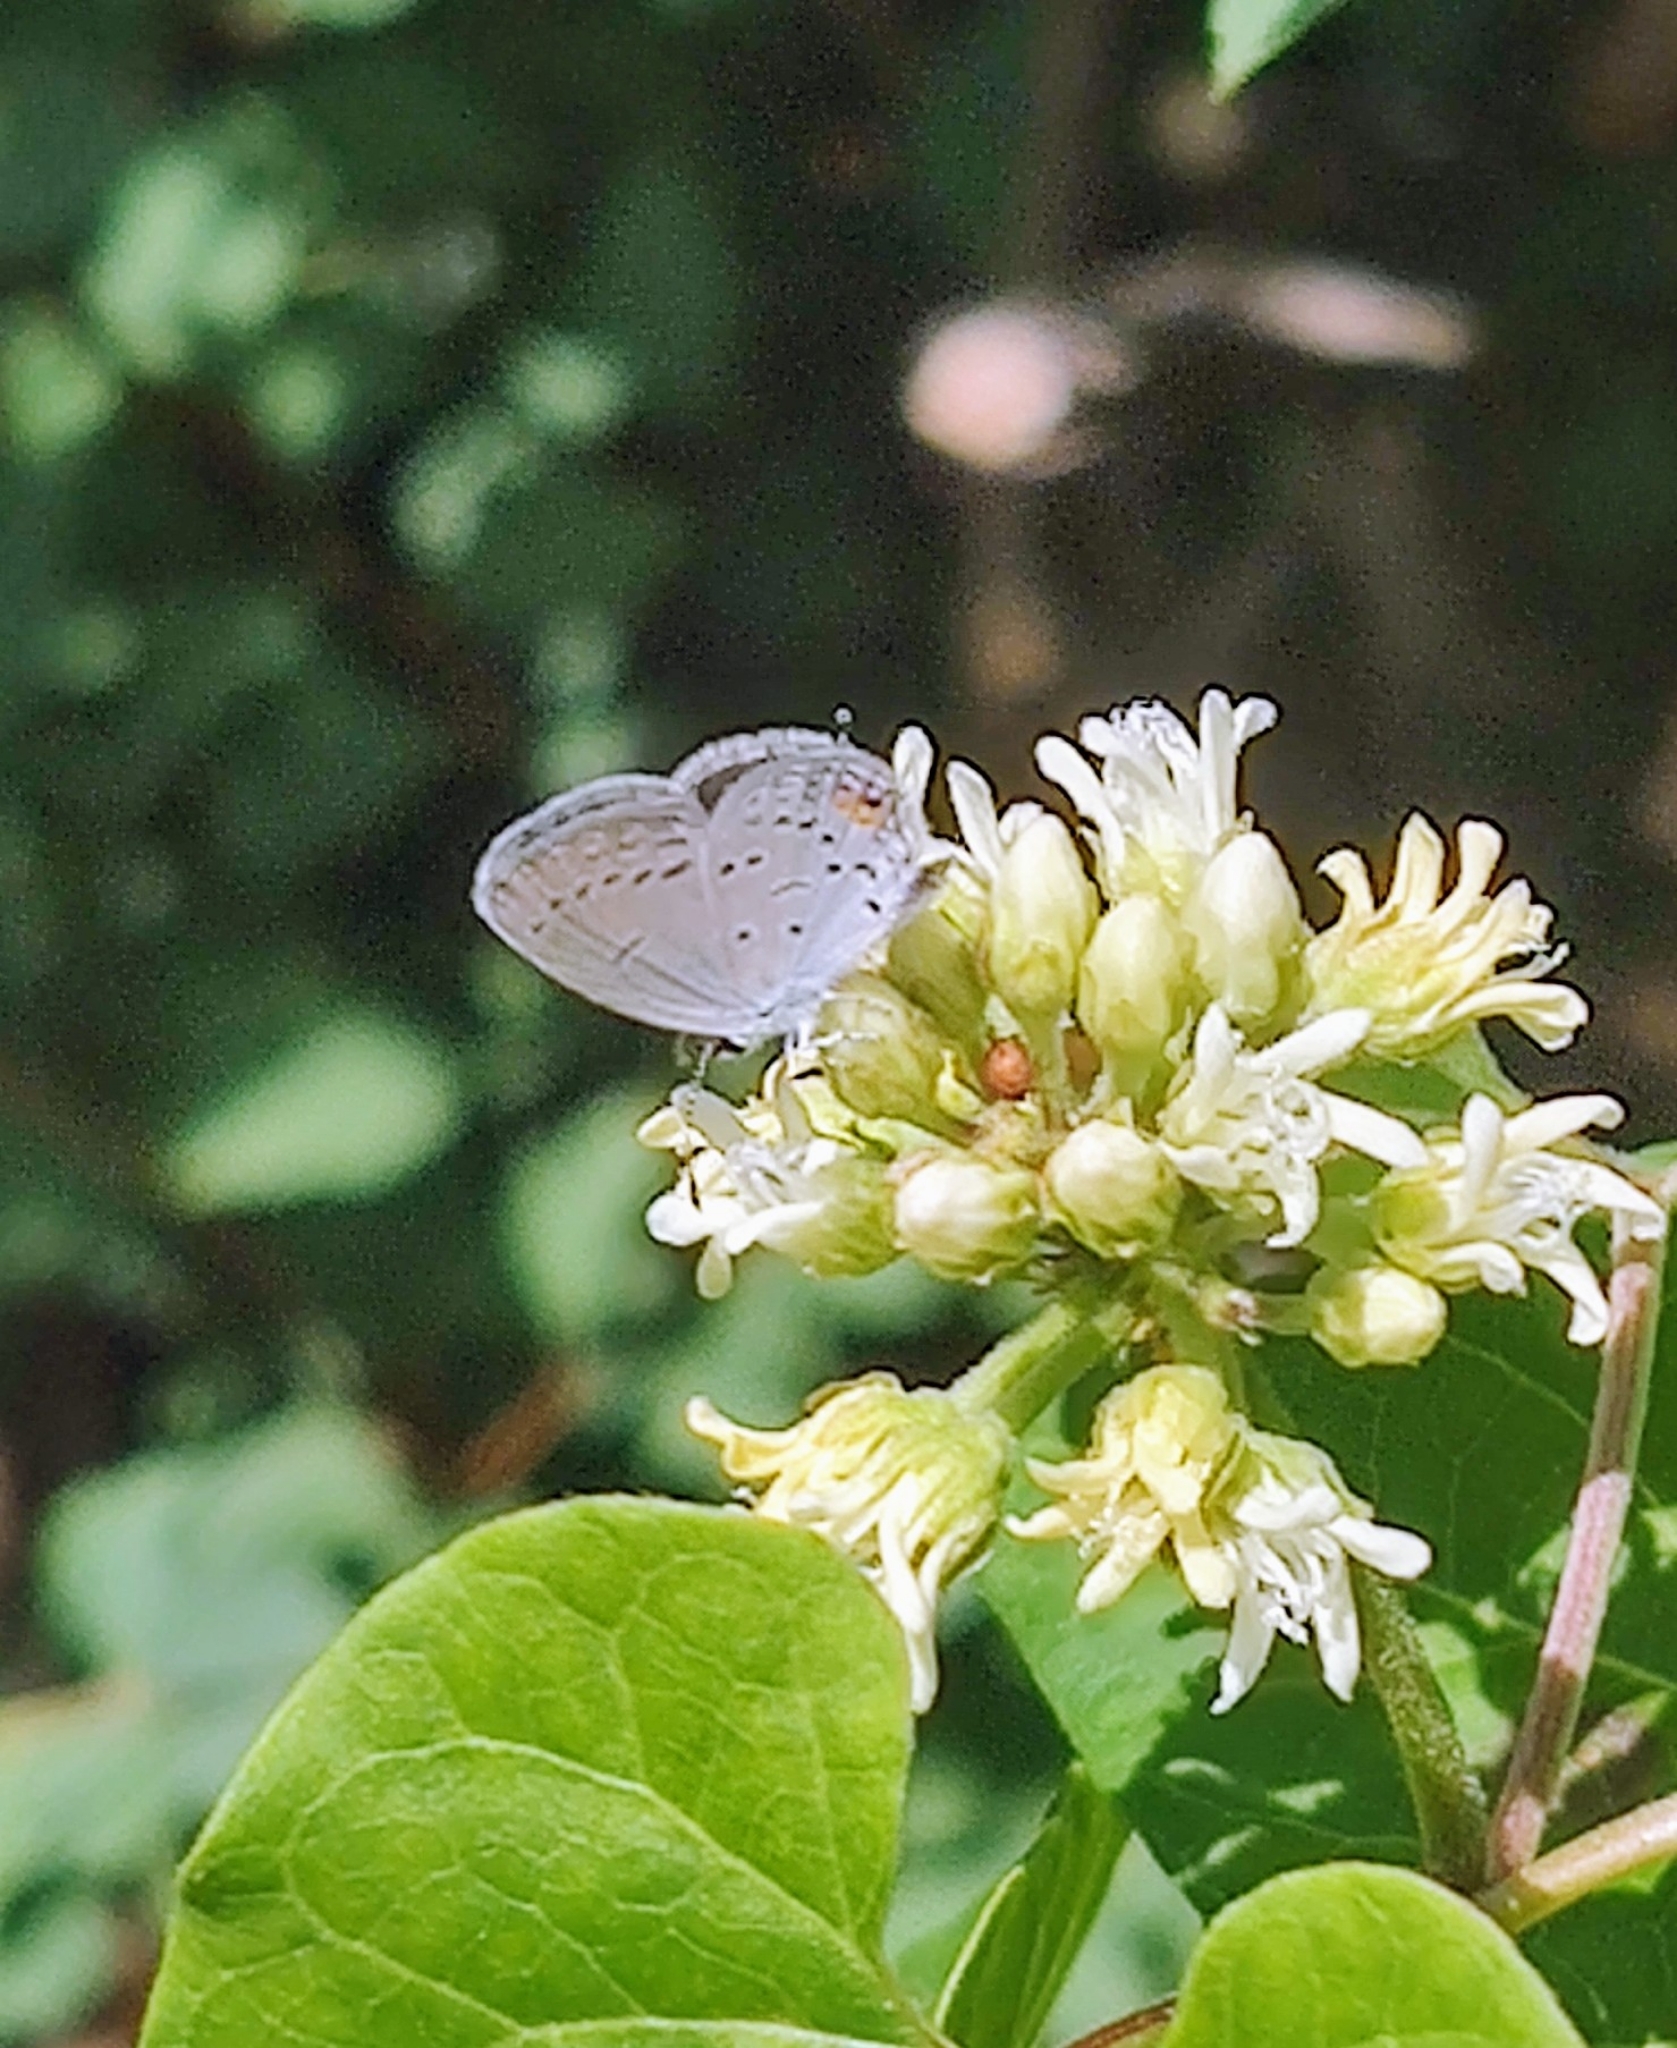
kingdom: Animalia
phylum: Arthropoda
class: Insecta
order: Lepidoptera
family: Lycaenidae
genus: Elkalyce
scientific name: Elkalyce comyntas
